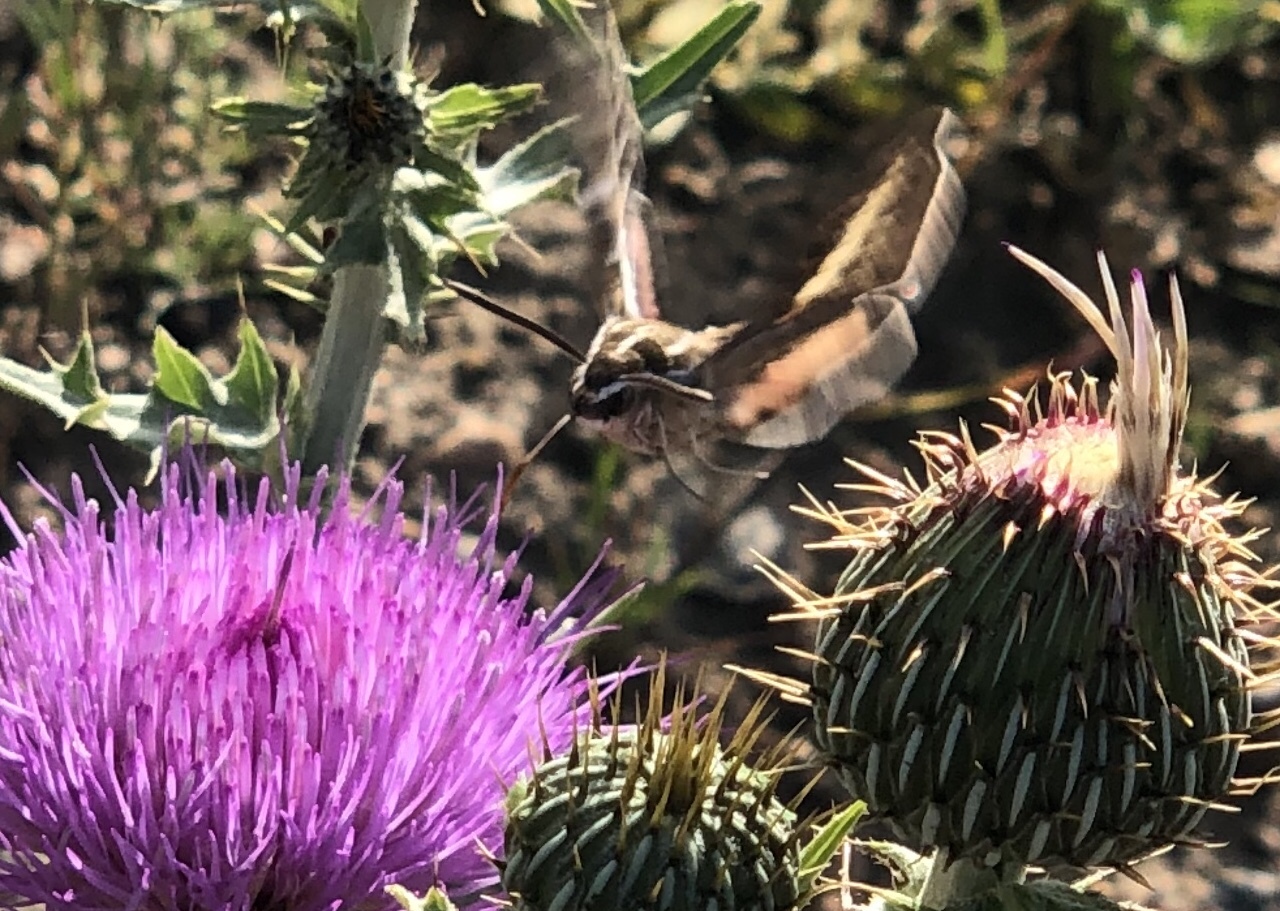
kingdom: Animalia
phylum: Arthropoda
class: Insecta
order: Lepidoptera
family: Sphingidae
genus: Hyles
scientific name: Hyles lineata
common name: White-lined sphinx
